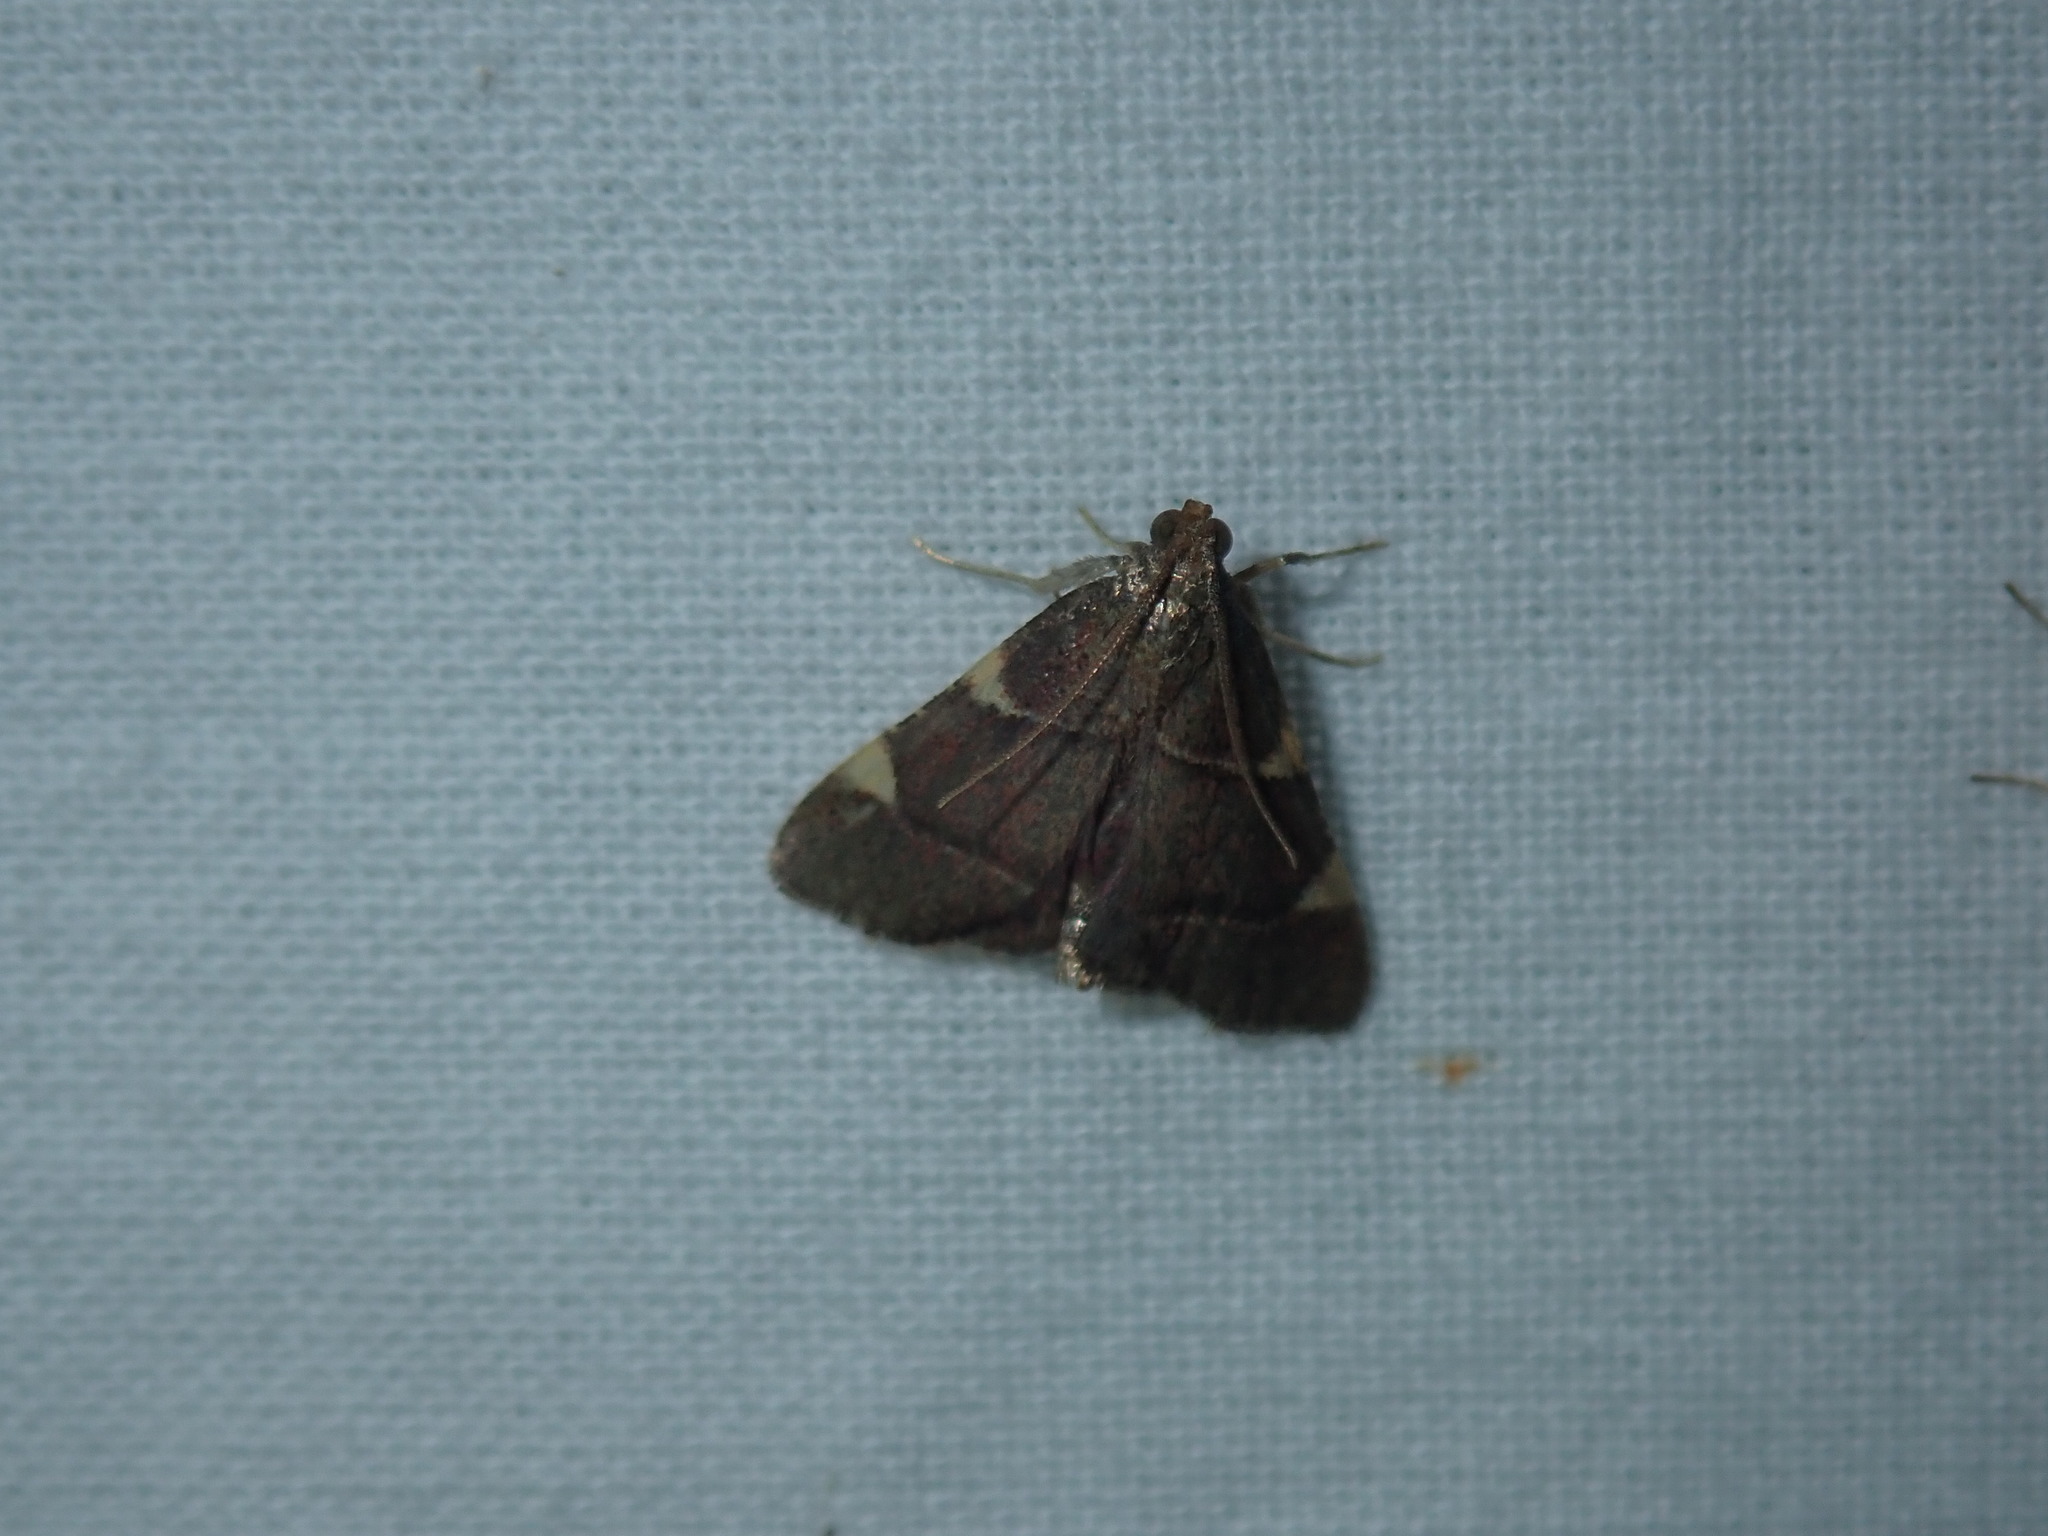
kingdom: Animalia
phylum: Arthropoda
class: Insecta
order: Lepidoptera
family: Pyralidae
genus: Hypsopygia
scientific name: Hypsopygia olinalis
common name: Yellow-fringed dolichomia moth
